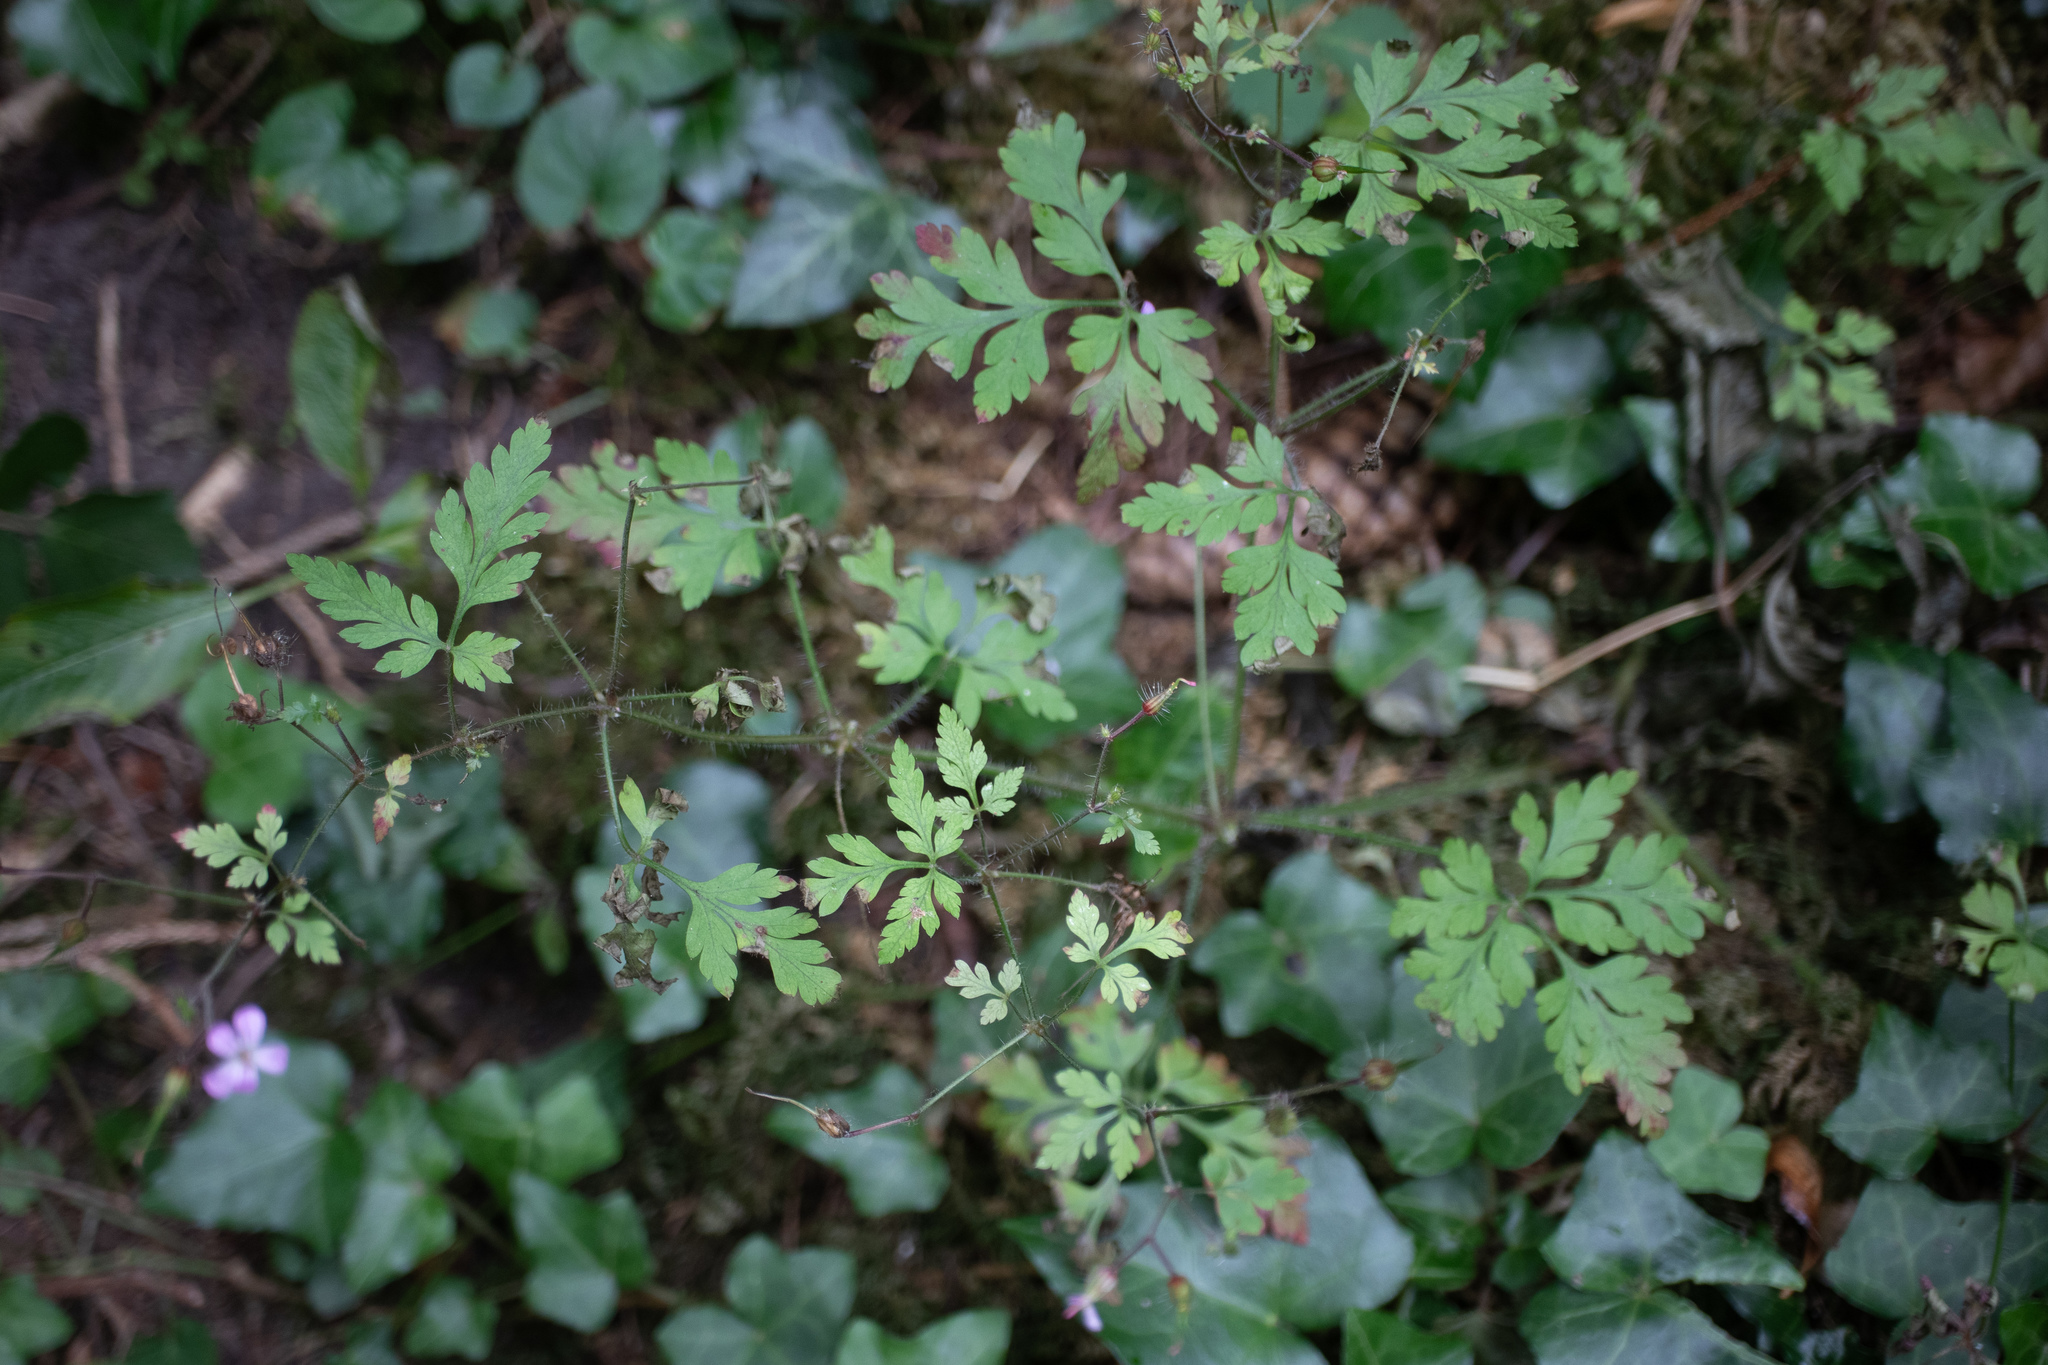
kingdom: Plantae
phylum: Tracheophyta
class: Magnoliopsida
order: Geraniales
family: Geraniaceae
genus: Geranium
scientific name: Geranium robertianum
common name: Herb-robert
